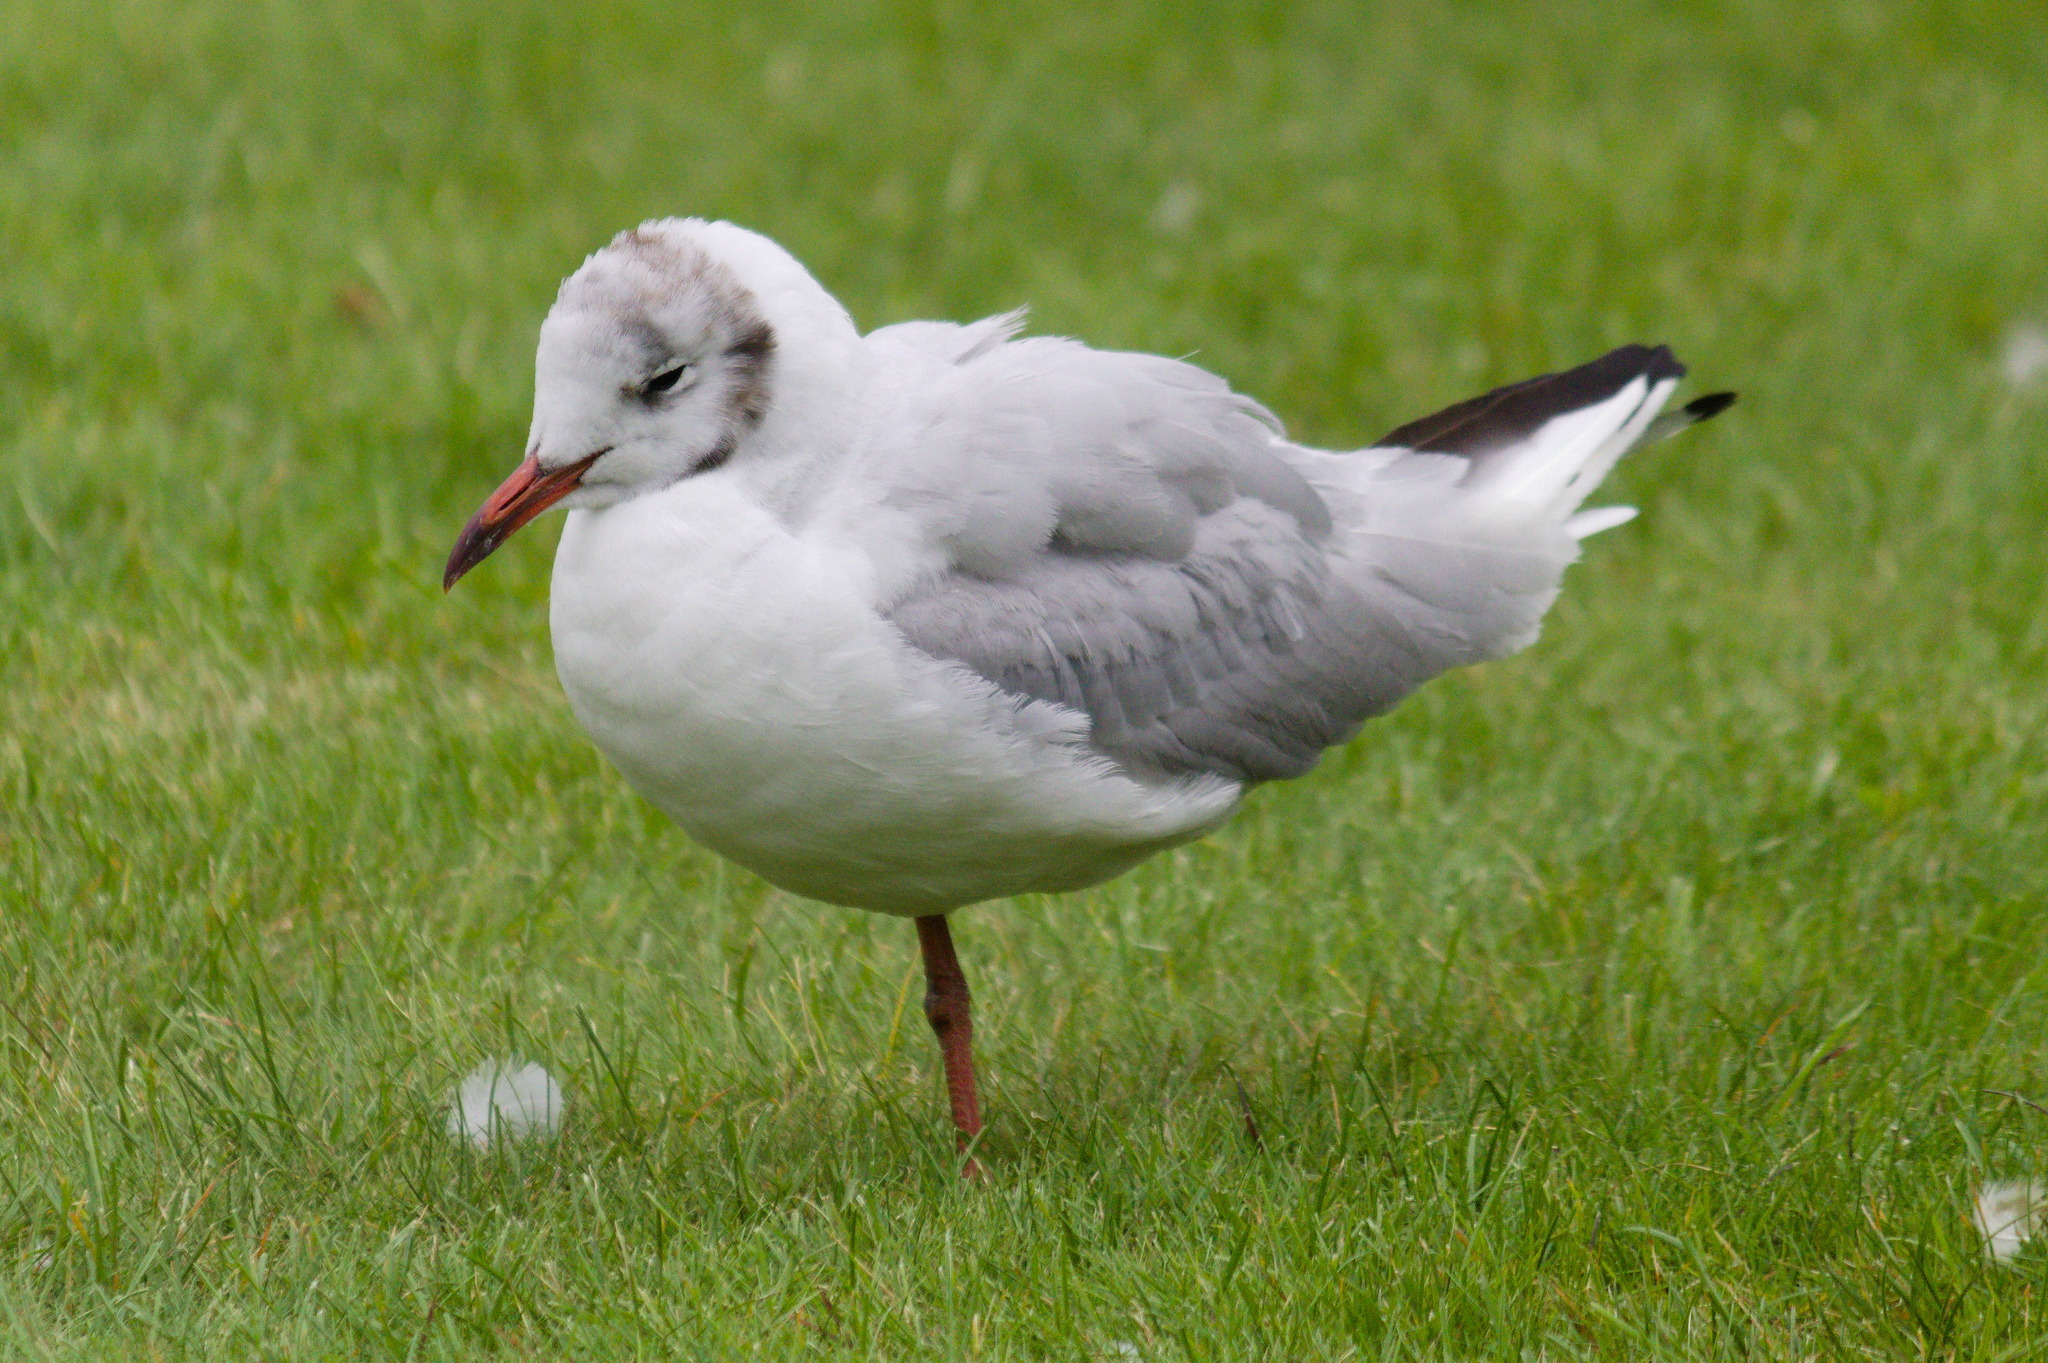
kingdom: Animalia
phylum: Chordata
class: Aves
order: Charadriiformes
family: Laridae
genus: Chroicocephalus
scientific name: Chroicocephalus ridibundus
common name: Black-headed gull
